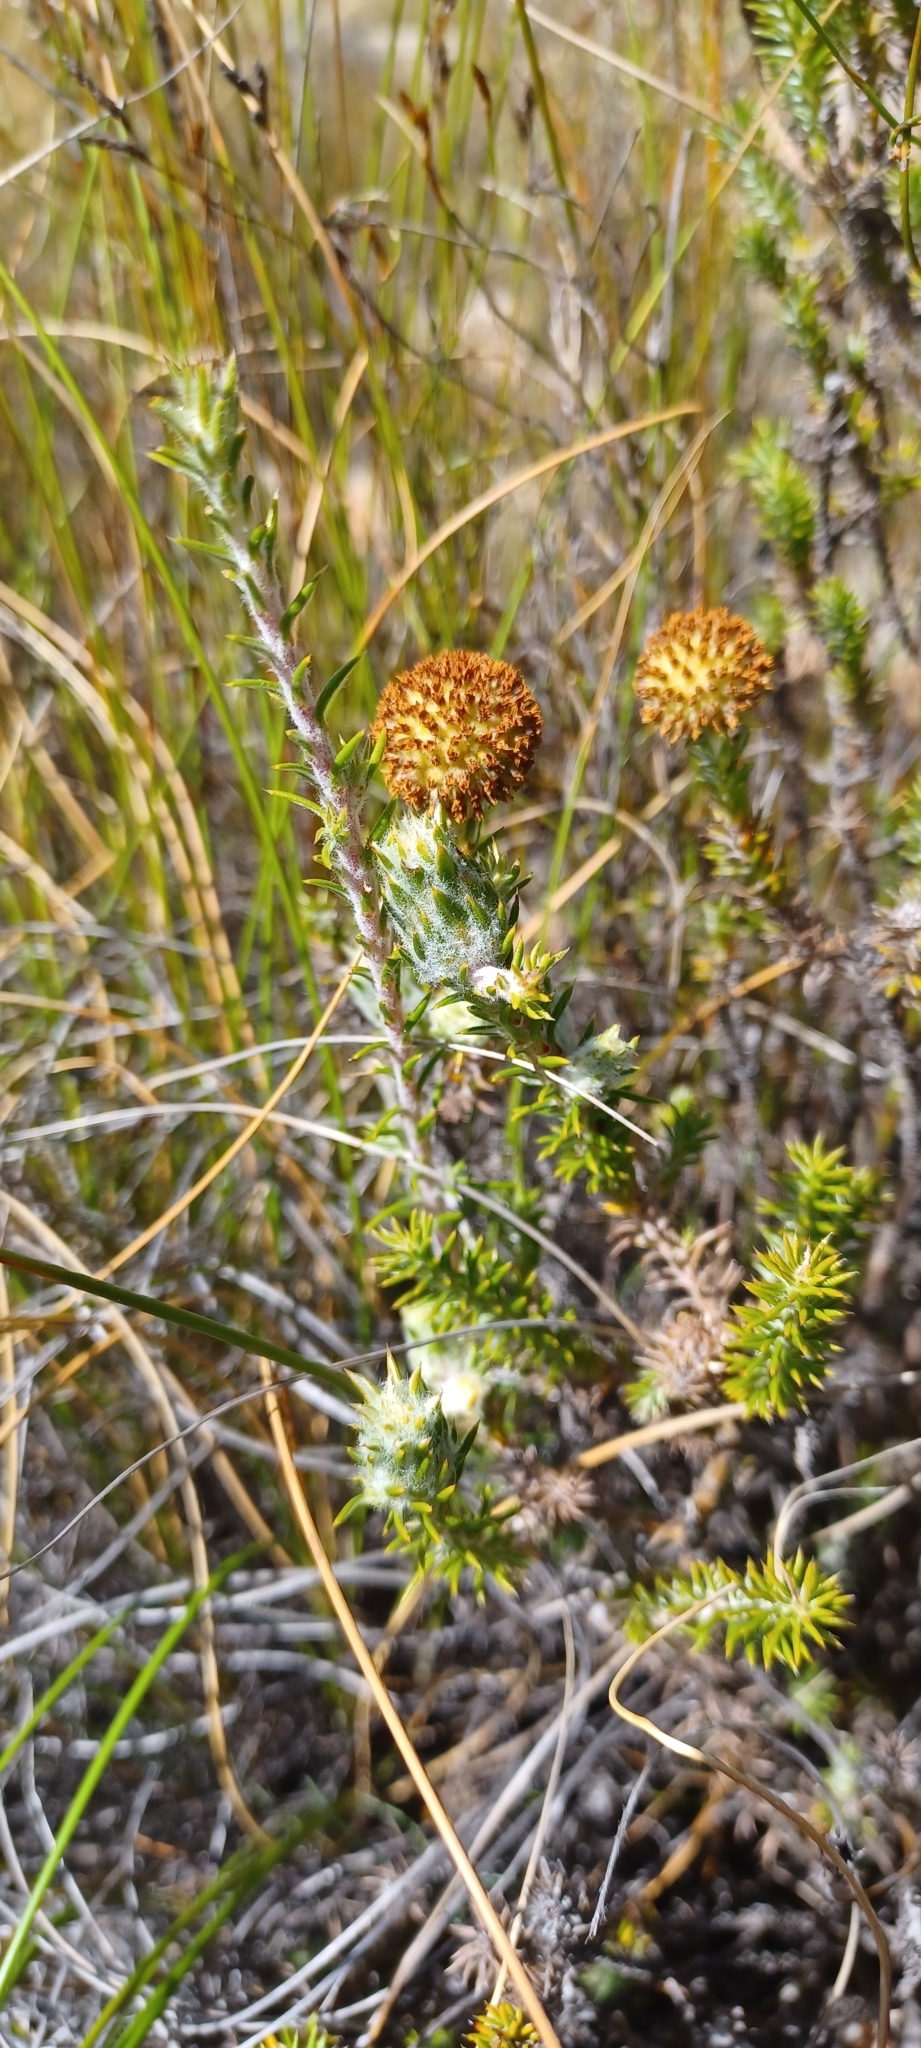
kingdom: Plantae
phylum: Tracheophyta
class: Magnoliopsida
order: Asterales
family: Asteraceae
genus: Stoebe
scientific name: Stoebe aethiopica
